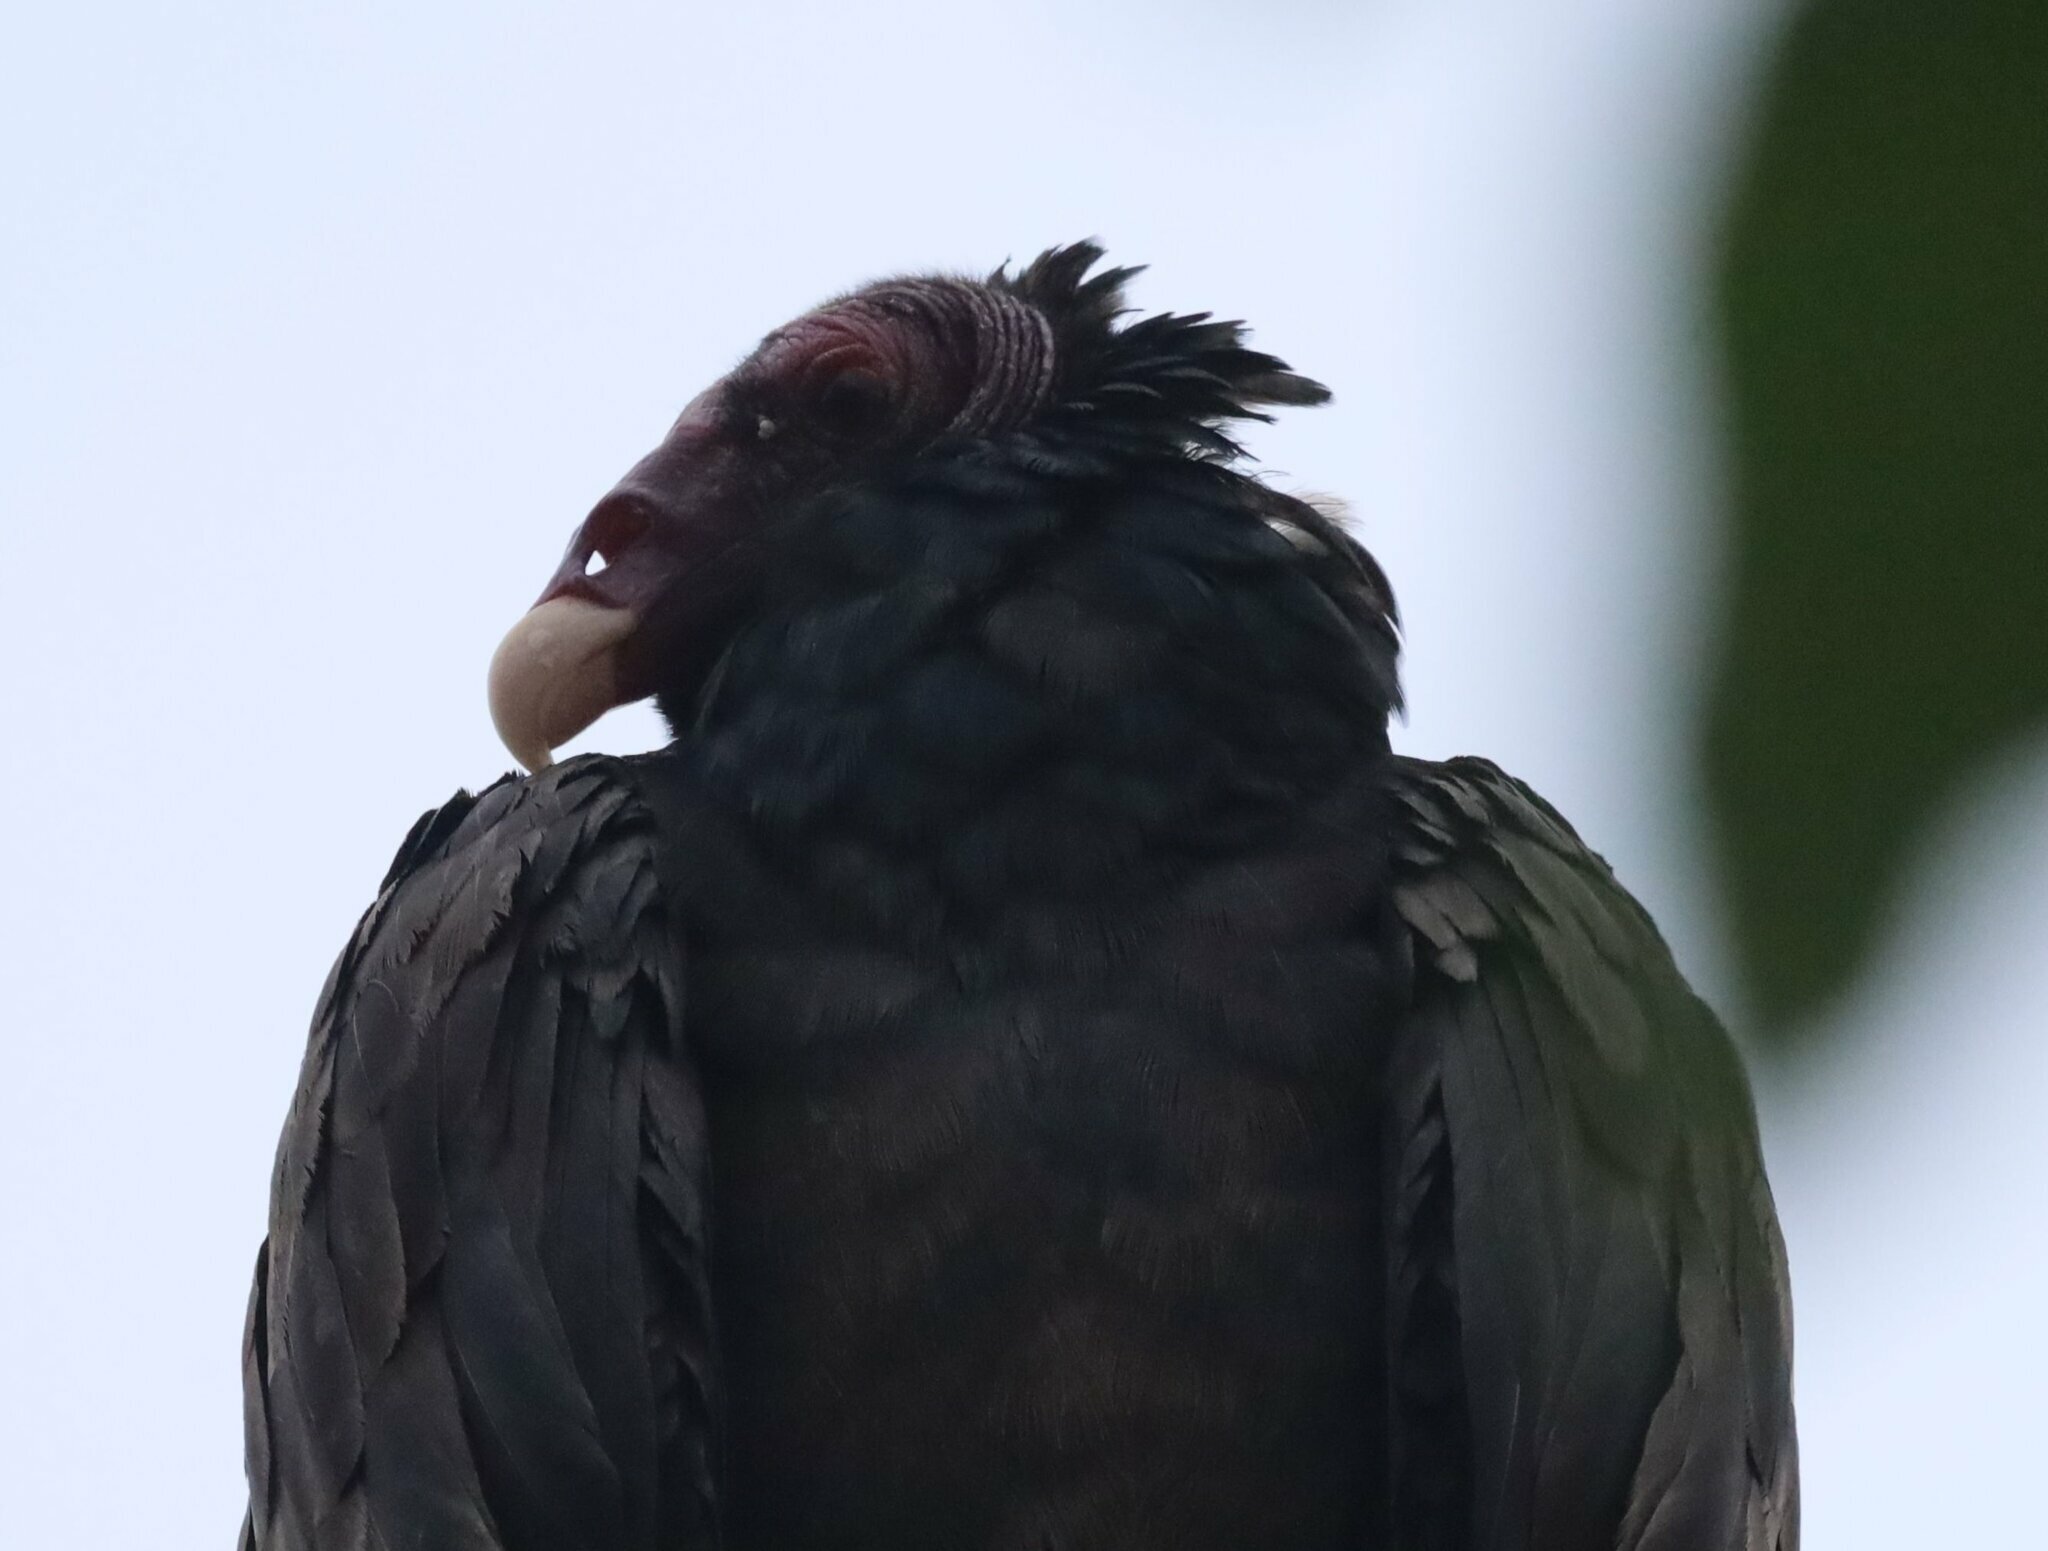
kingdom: Animalia
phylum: Chordata
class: Aves
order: Accipitriformes
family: Cathartidae
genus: Cathartes
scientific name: Cathartes aura
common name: Turkey vulture
